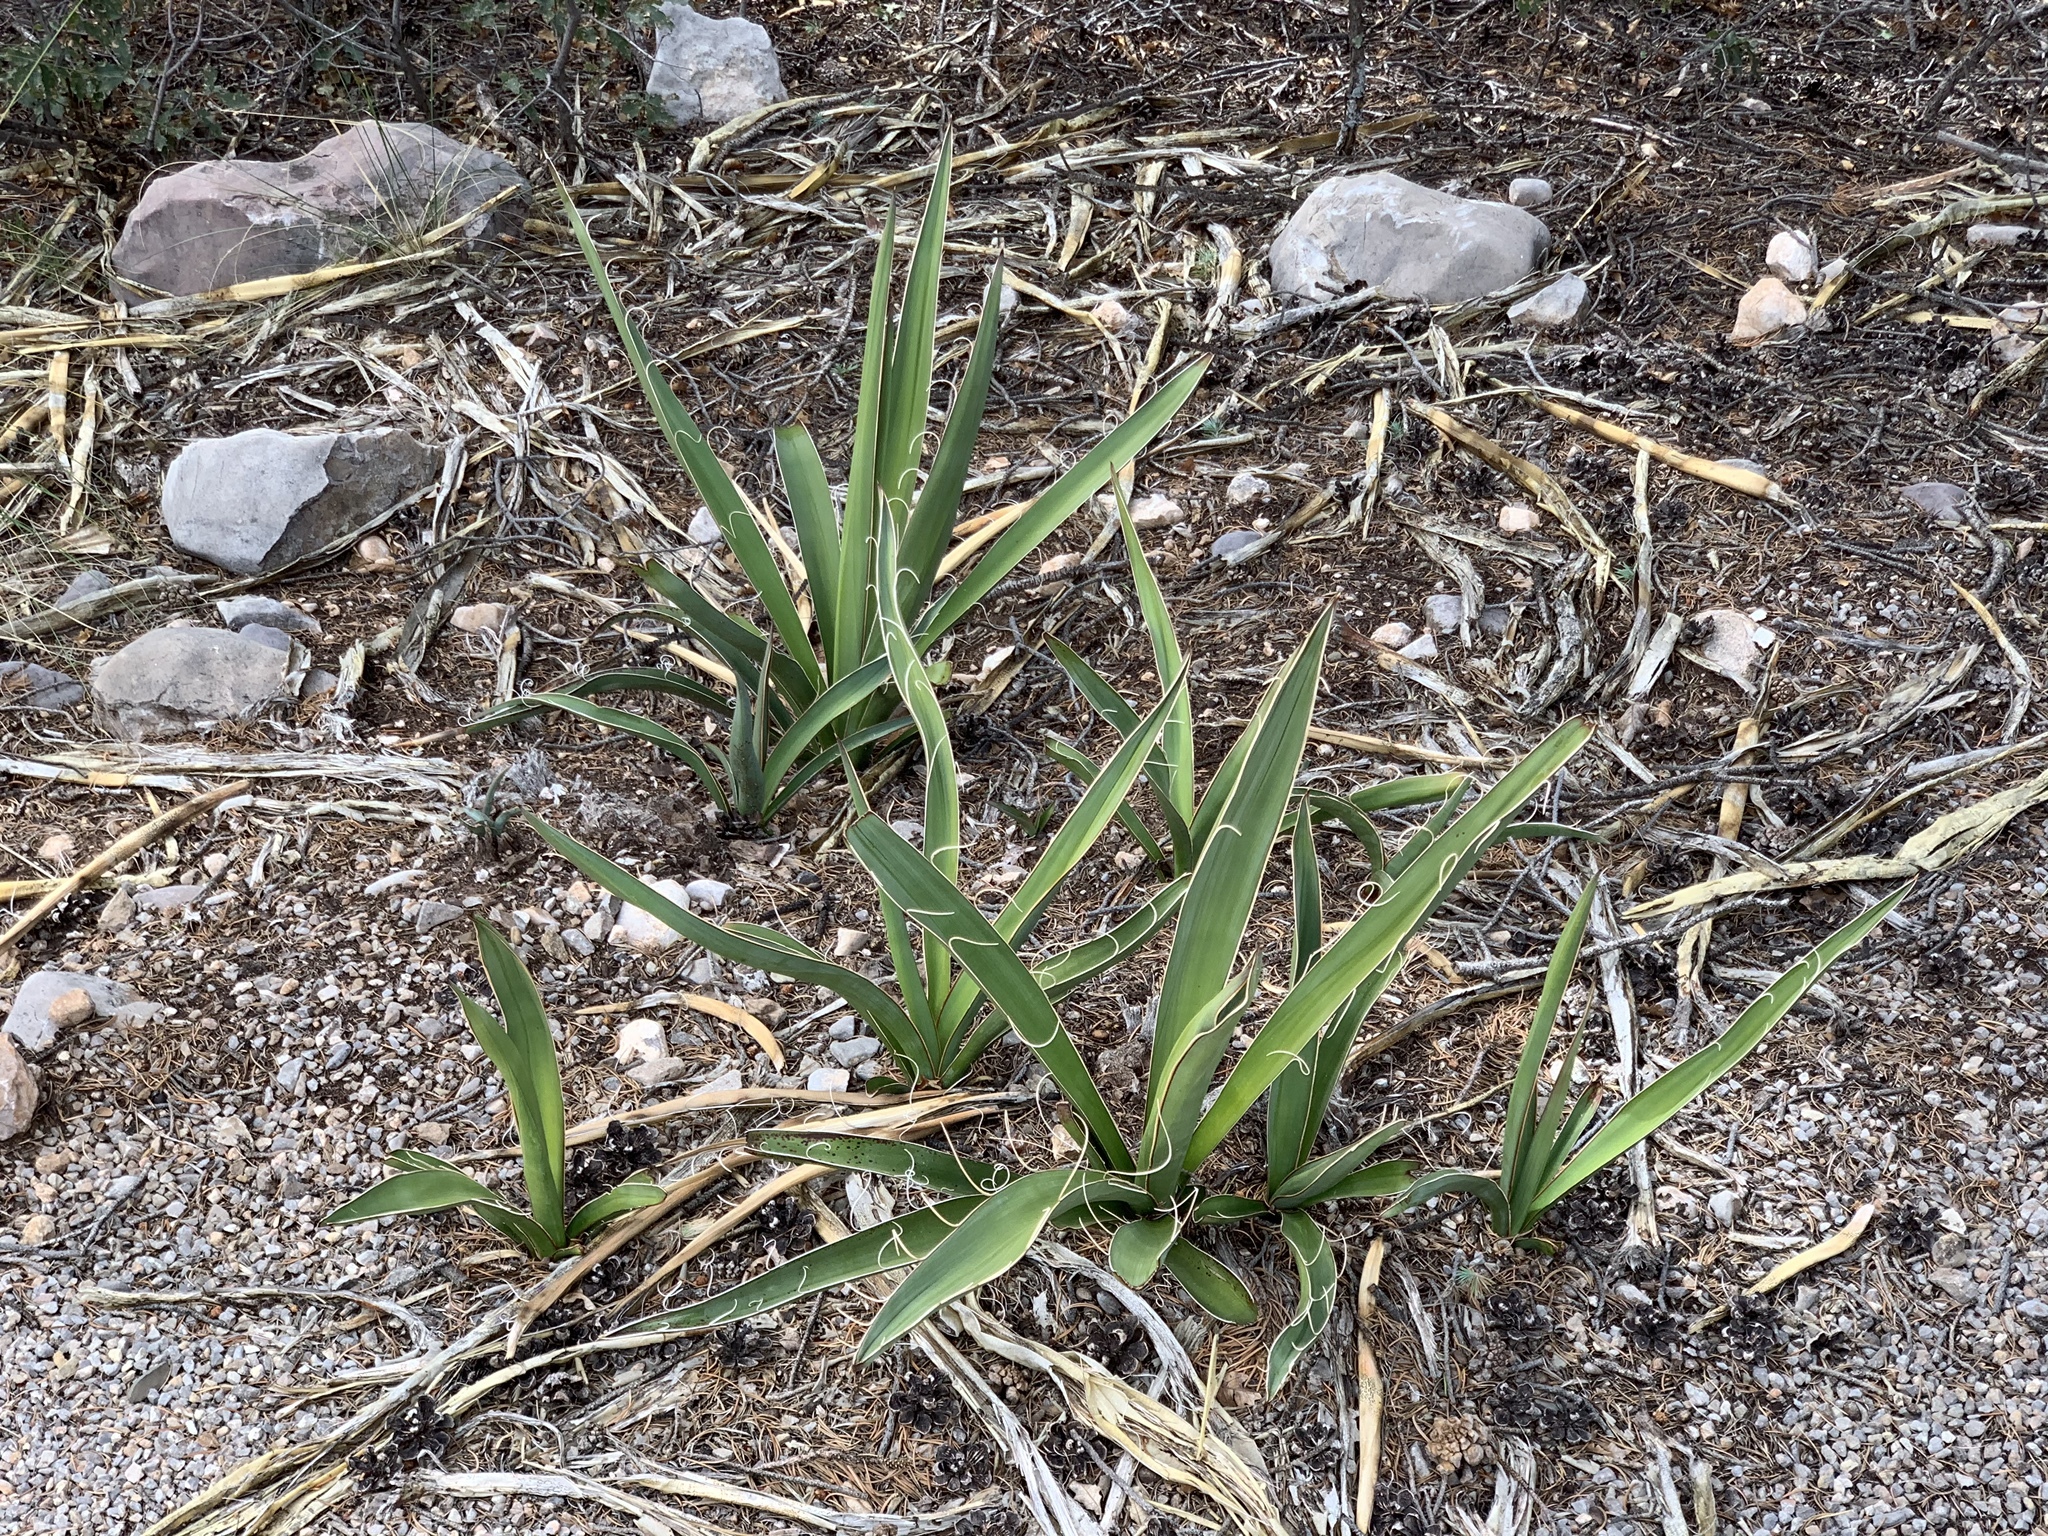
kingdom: Plantae
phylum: Tracheophyta
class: Liliopsida
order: Asparagales
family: Asparagaceae
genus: Yucca
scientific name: Yucca baccata
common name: Banana yucca
